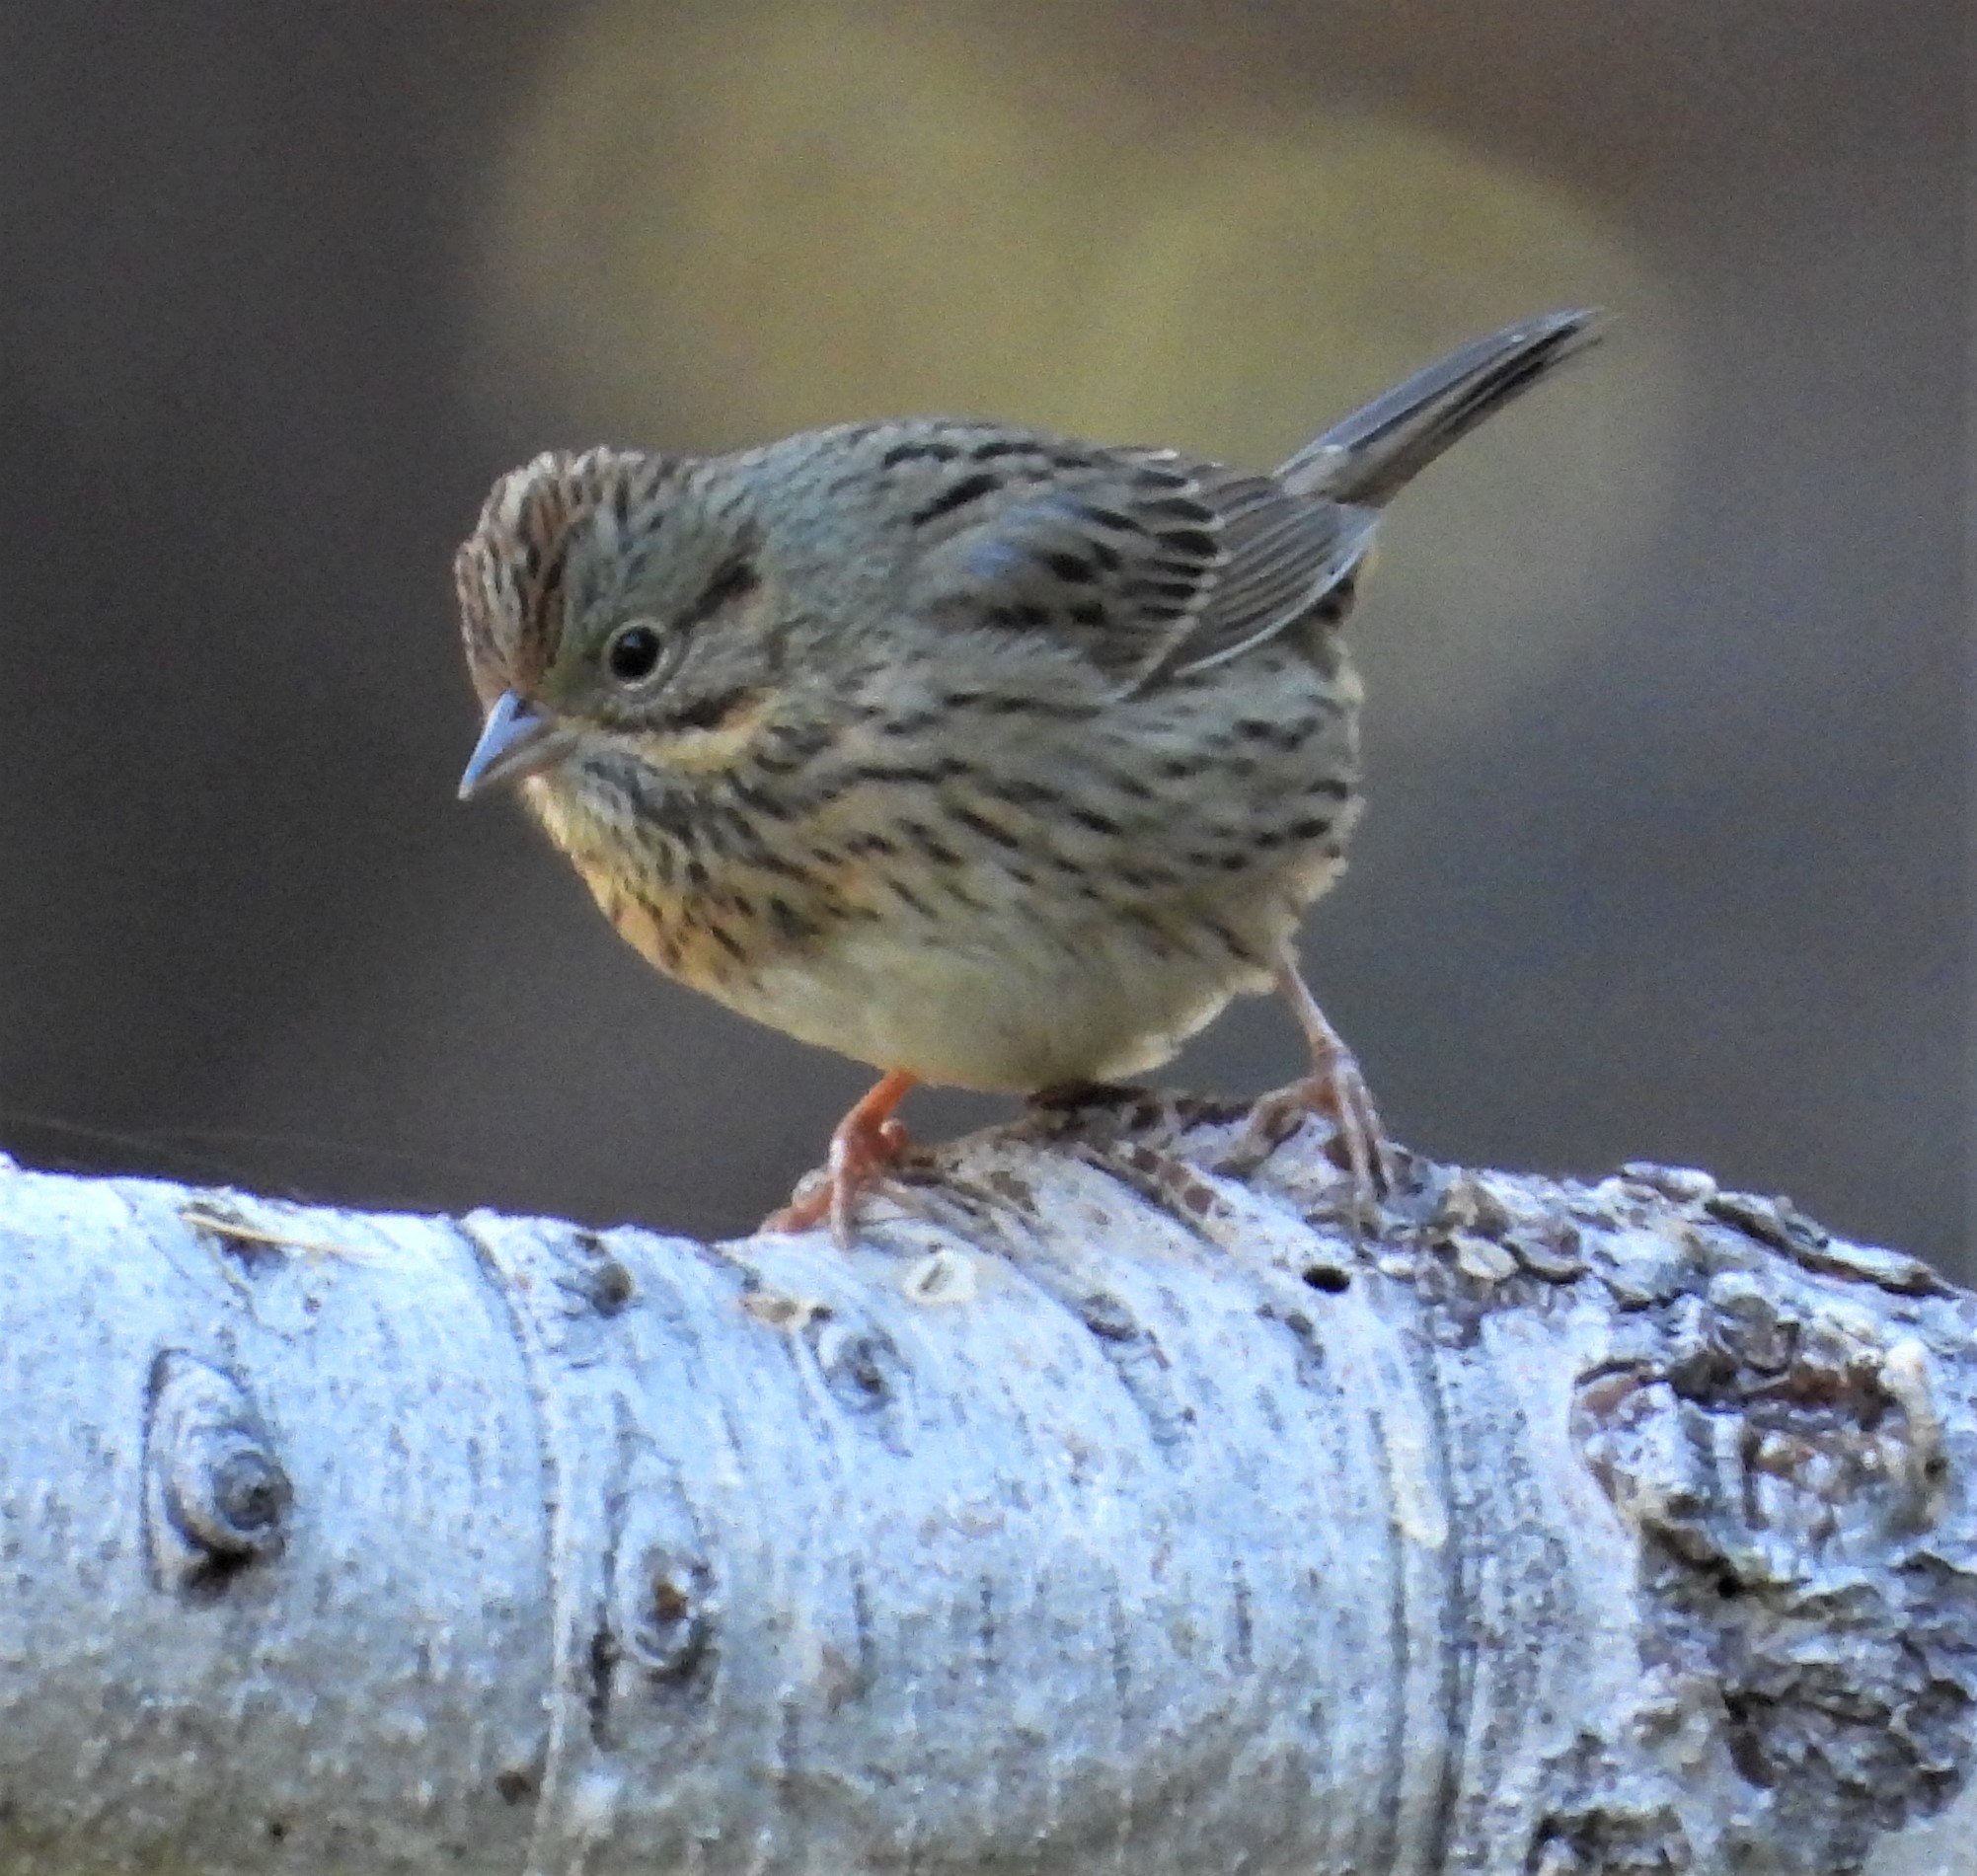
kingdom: Animalia
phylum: Chordata
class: Aves
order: Passeriformes
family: Passerellidae
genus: Melospiza
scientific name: Melospiza lincolnii
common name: Lincoln's sparrow
